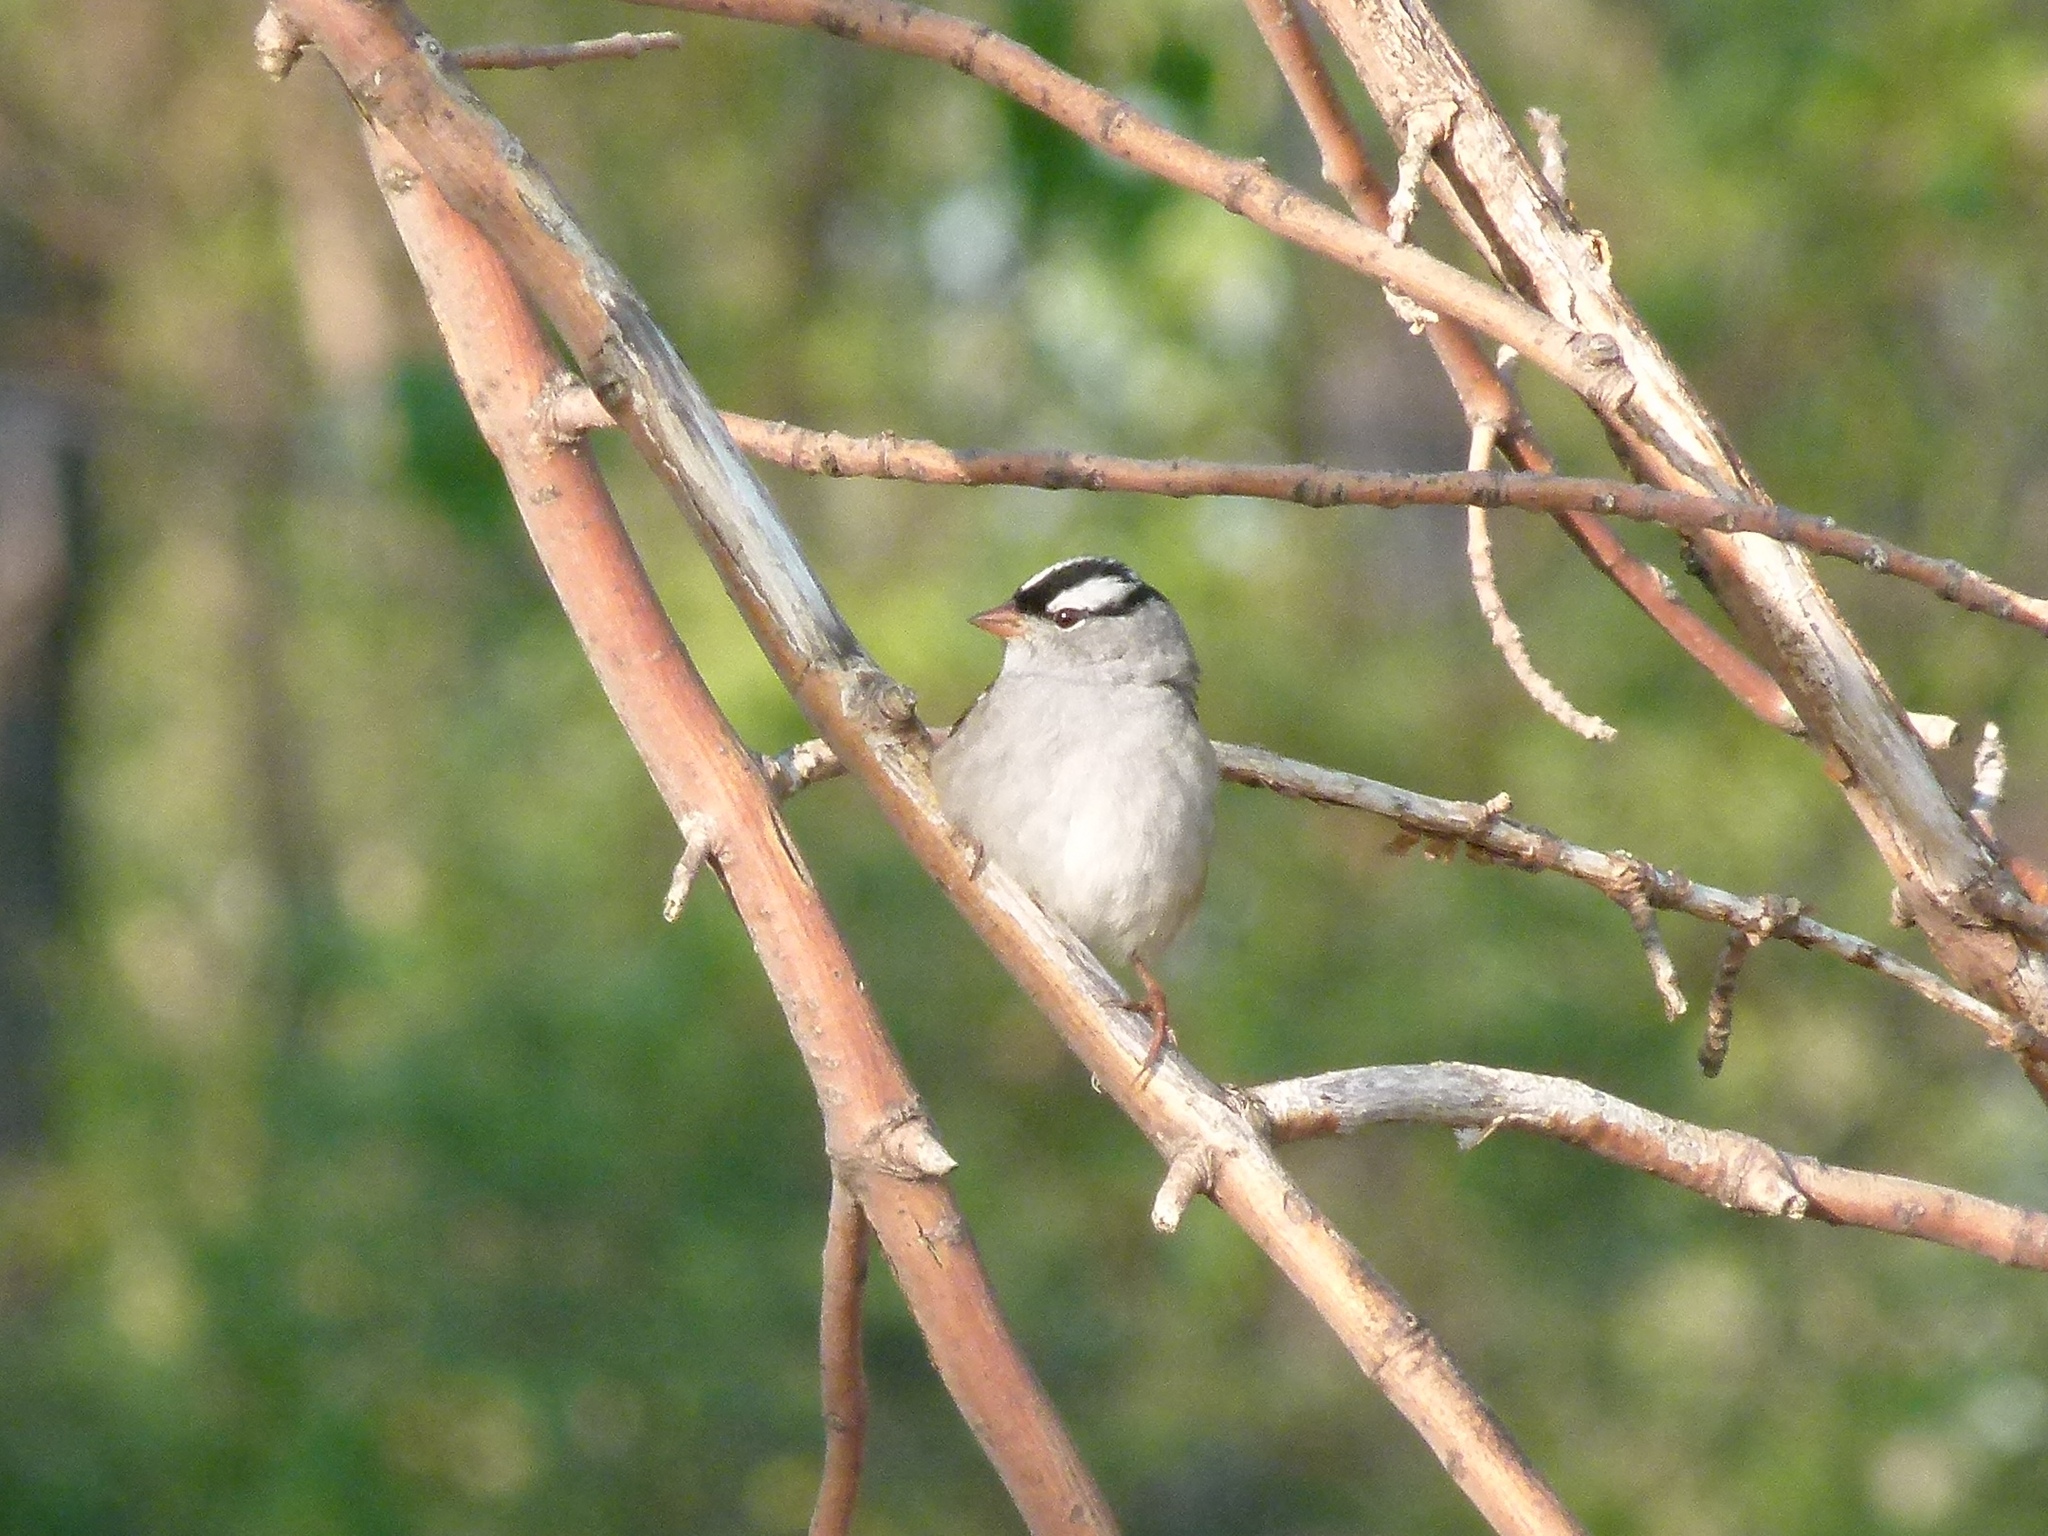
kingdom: Animalia
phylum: Chordata
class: Aves
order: Passeriformes
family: Passerellidae
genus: Zonotrichia
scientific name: Zonotrichia leucophrys
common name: White-crowned sparrow
